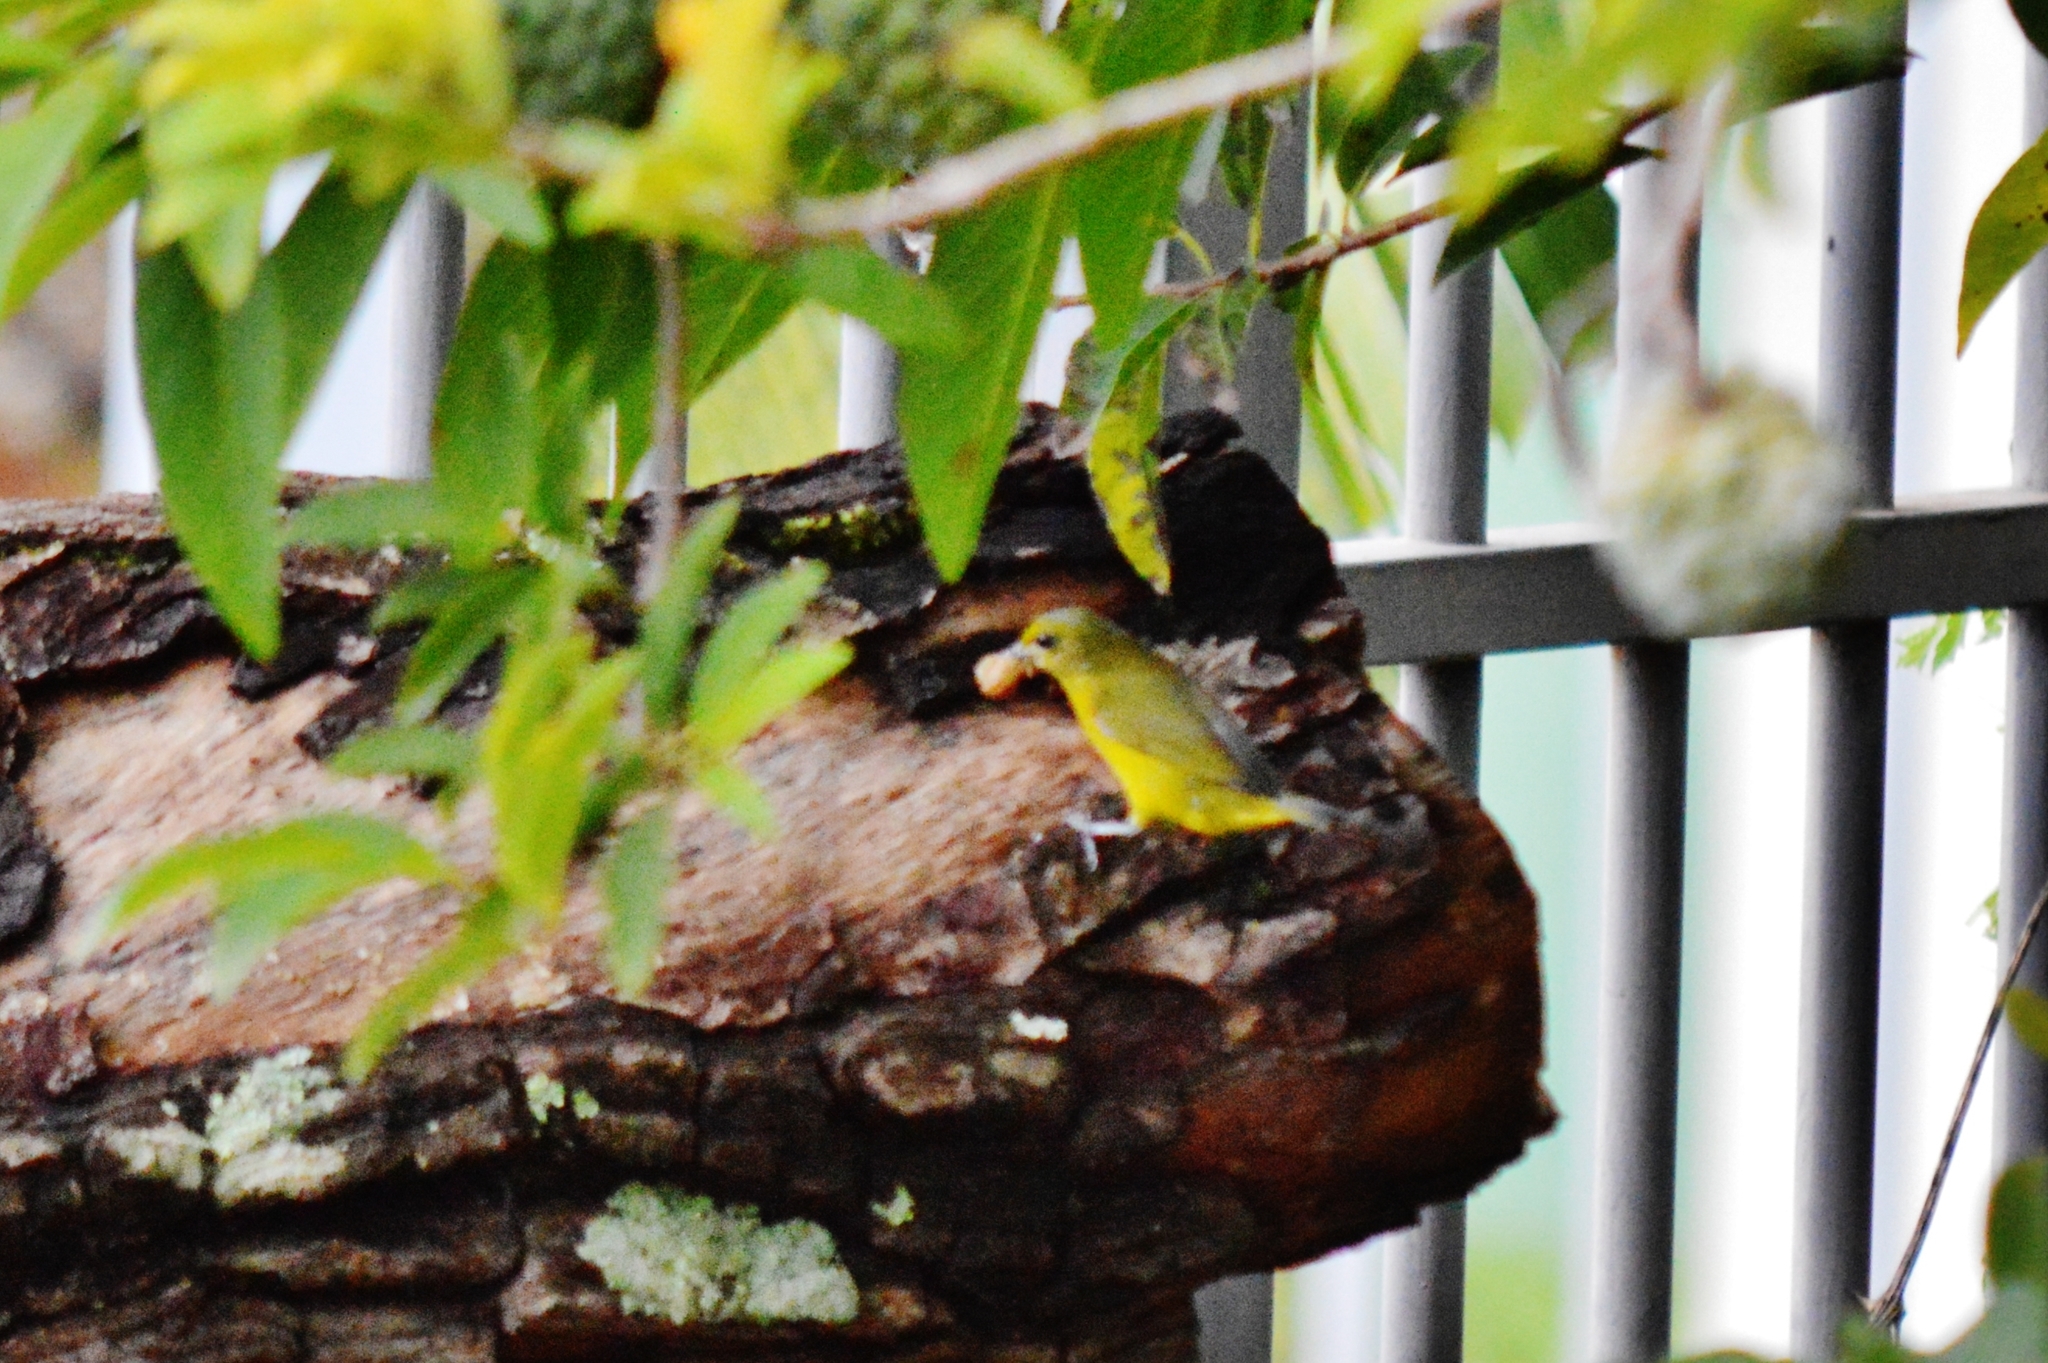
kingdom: Animalia
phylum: Chordata
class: Aves
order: Passeriformes
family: Fringillidae
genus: Euphonia
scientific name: Euphonia violacea
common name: Violaceous euphonia
